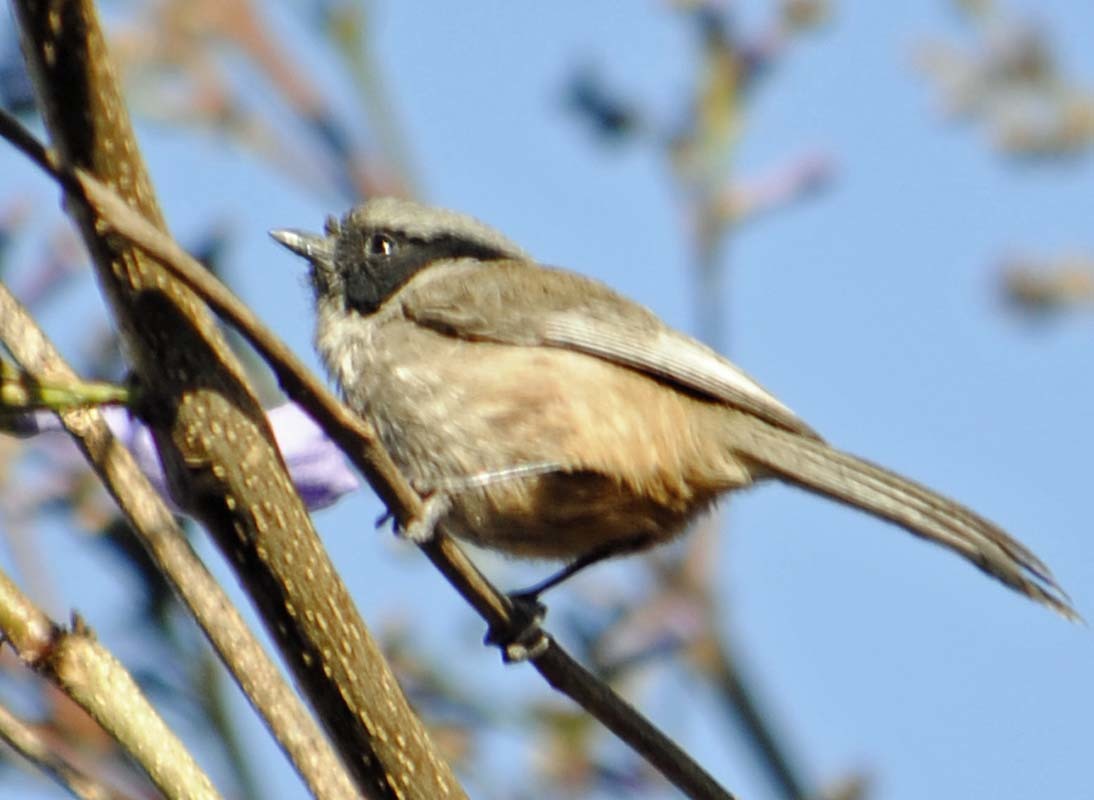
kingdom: Animalia
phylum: Chordata
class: Aves
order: Passeriformes
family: Aegithalidae
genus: Psaltriparus
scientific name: Psaltriparus minimus
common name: American bushtit
